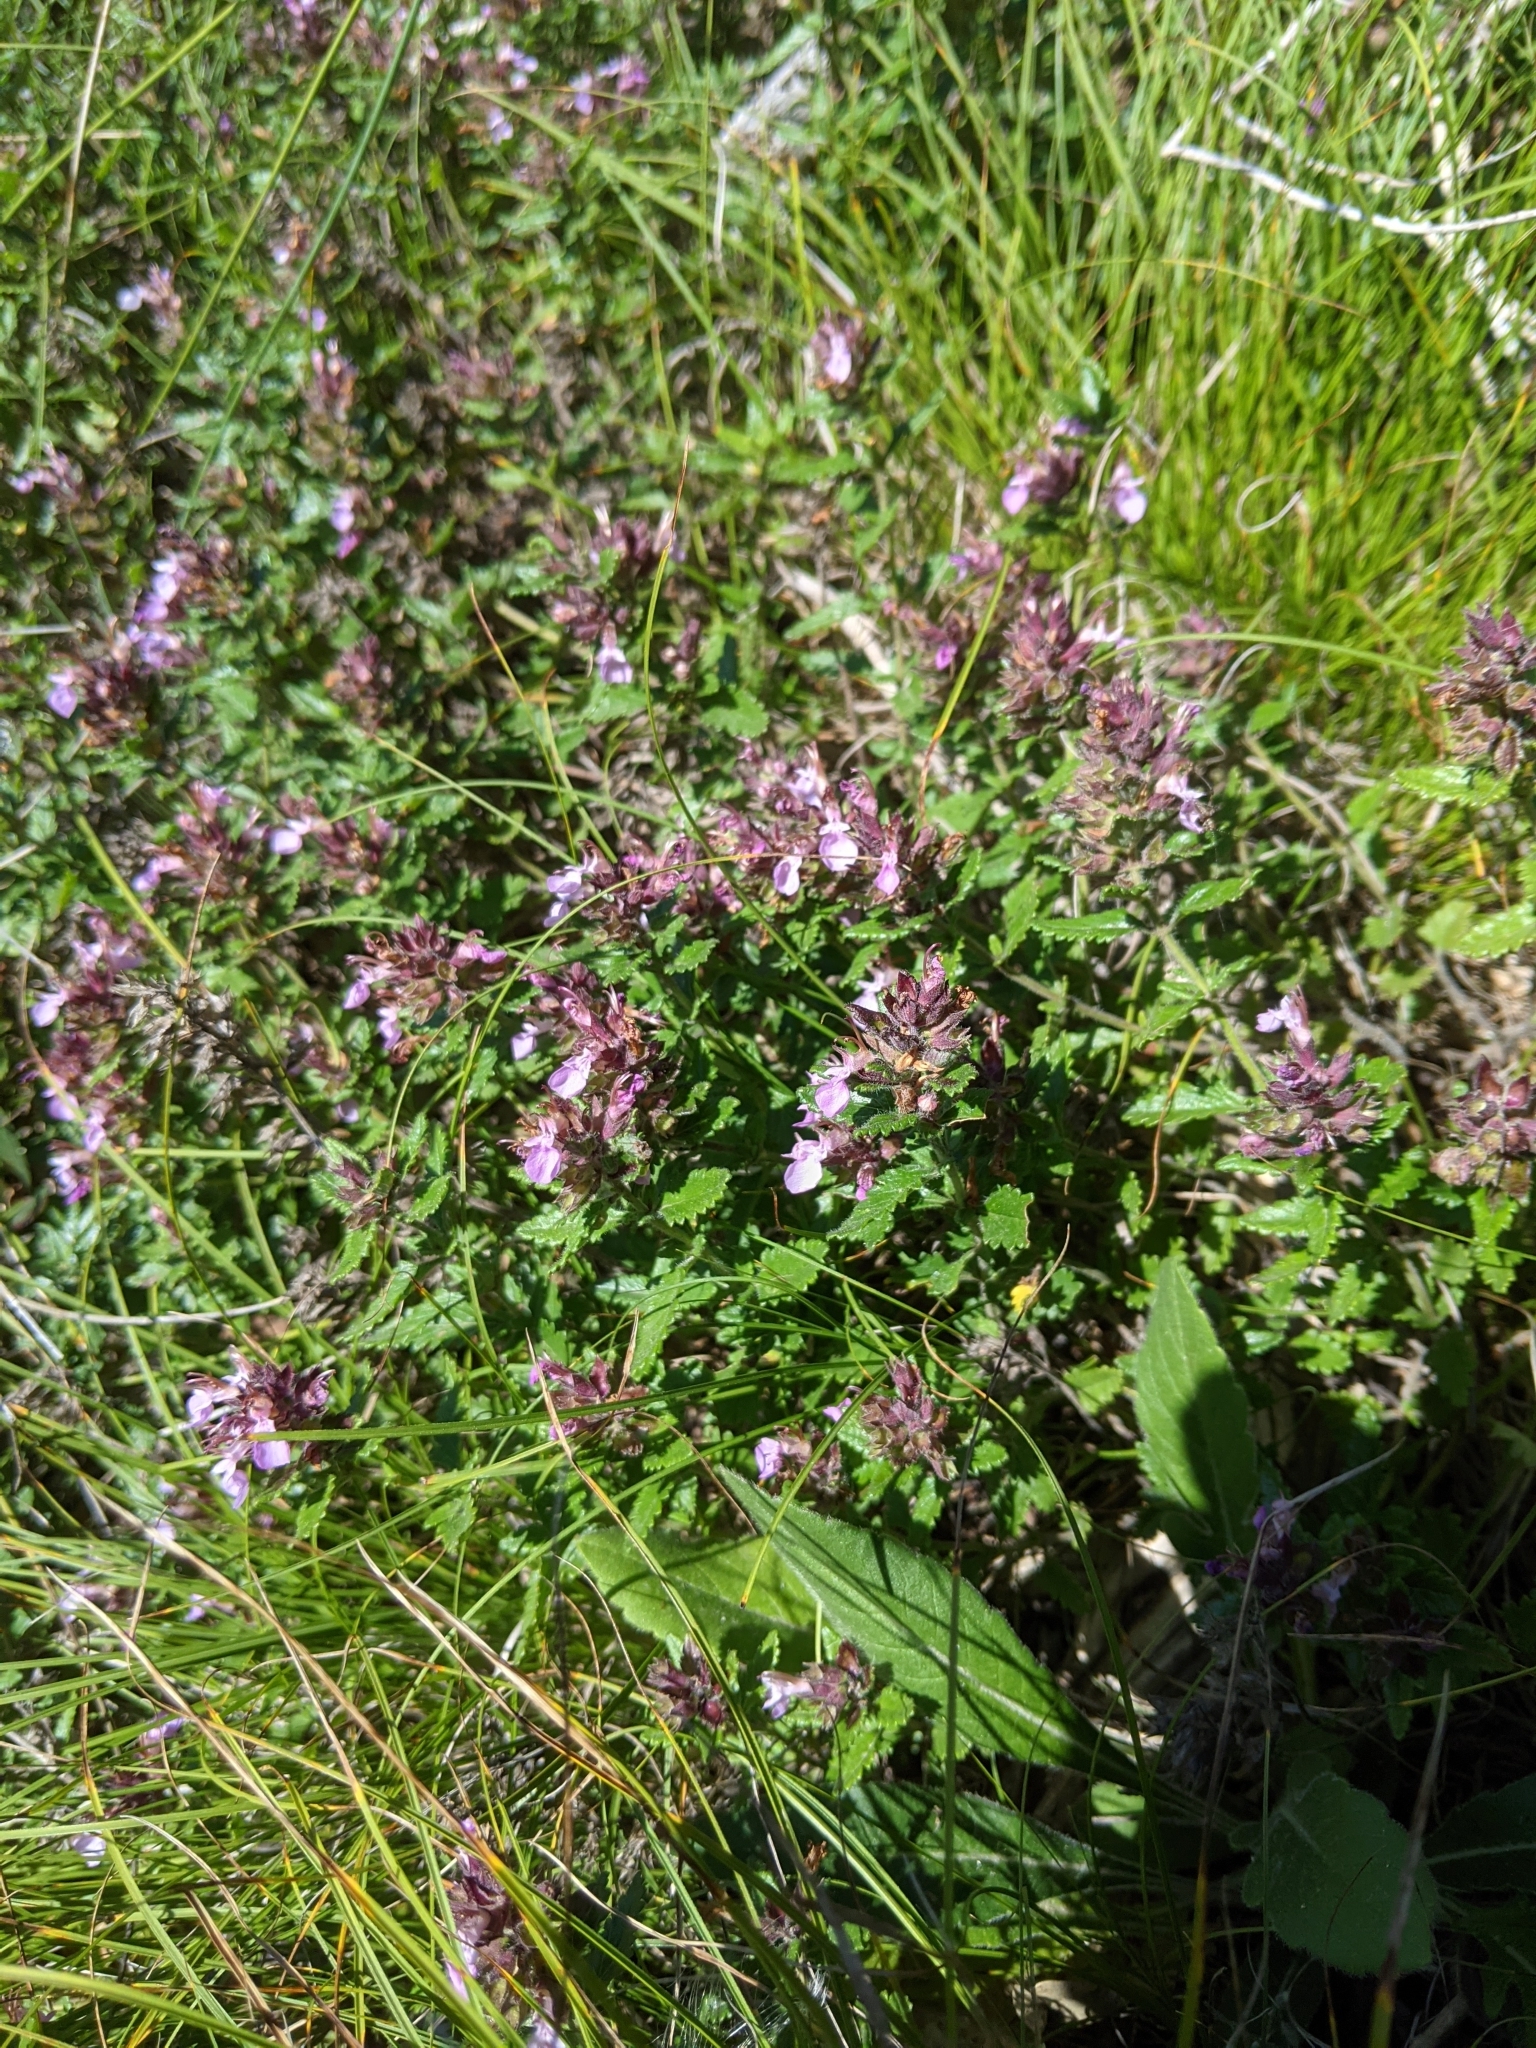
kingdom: Plantae
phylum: Tracheophyta
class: Magnoliopsida
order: Lamiales
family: Lamiaceae
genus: Teucrium
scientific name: Teucrium chamaedrys
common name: Wall germander
